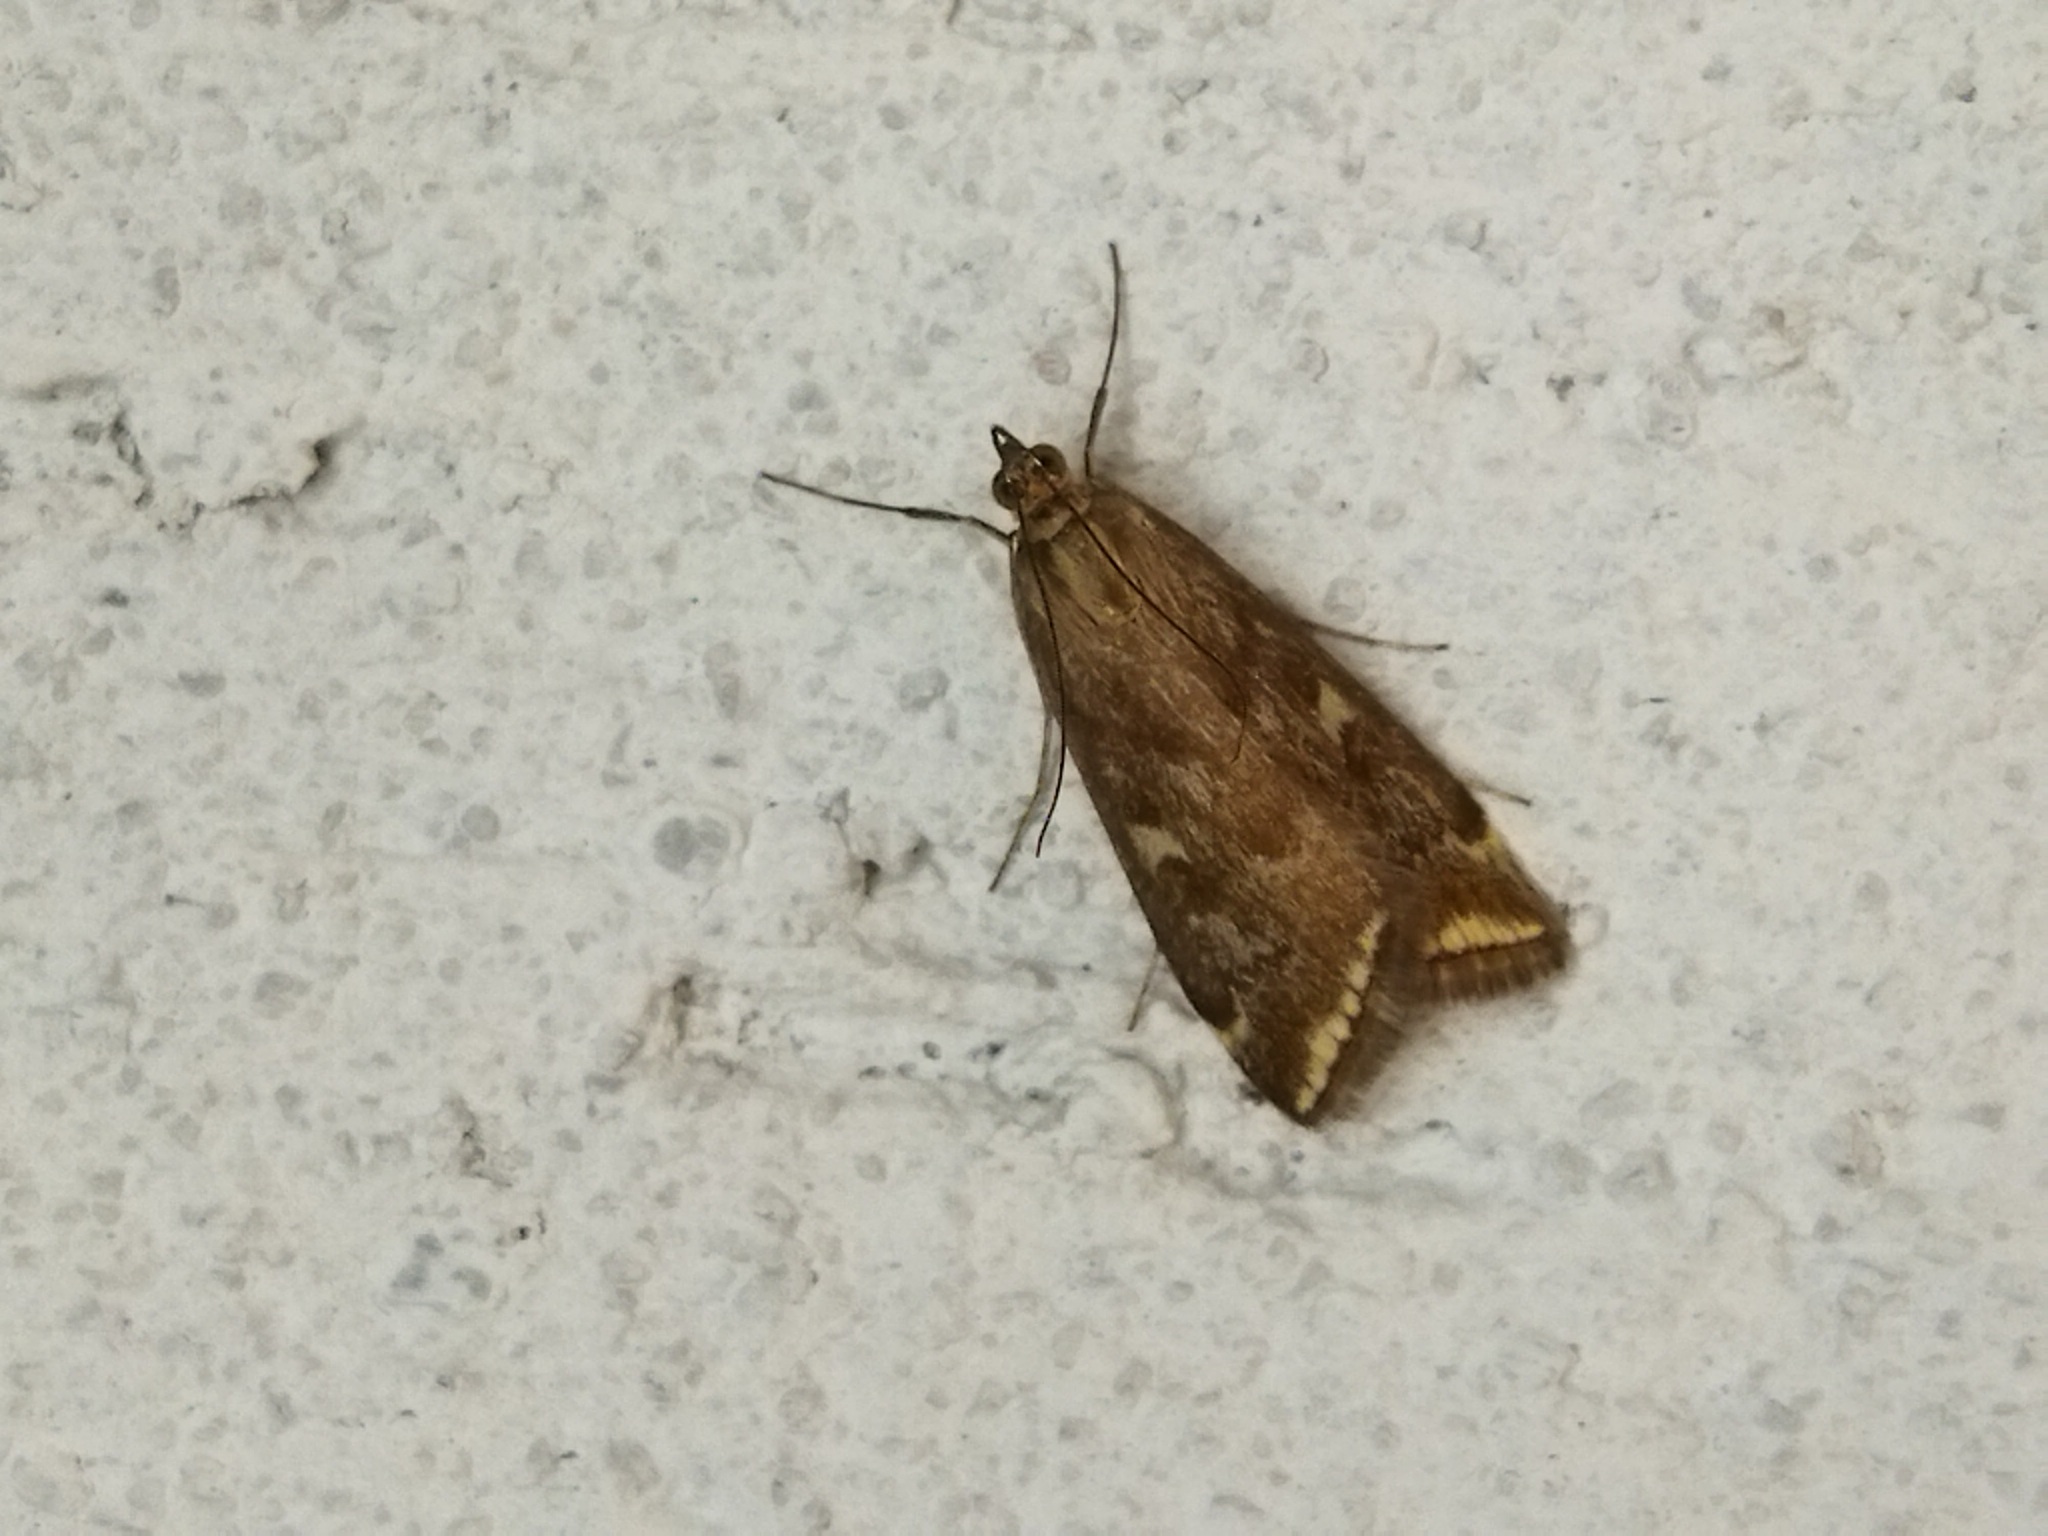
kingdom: Animalia
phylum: Arthropoda
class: Insecta
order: Lepidoptera
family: Crambidae
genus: Loxostege
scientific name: Loxostege sticticalis
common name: Crambid moth
